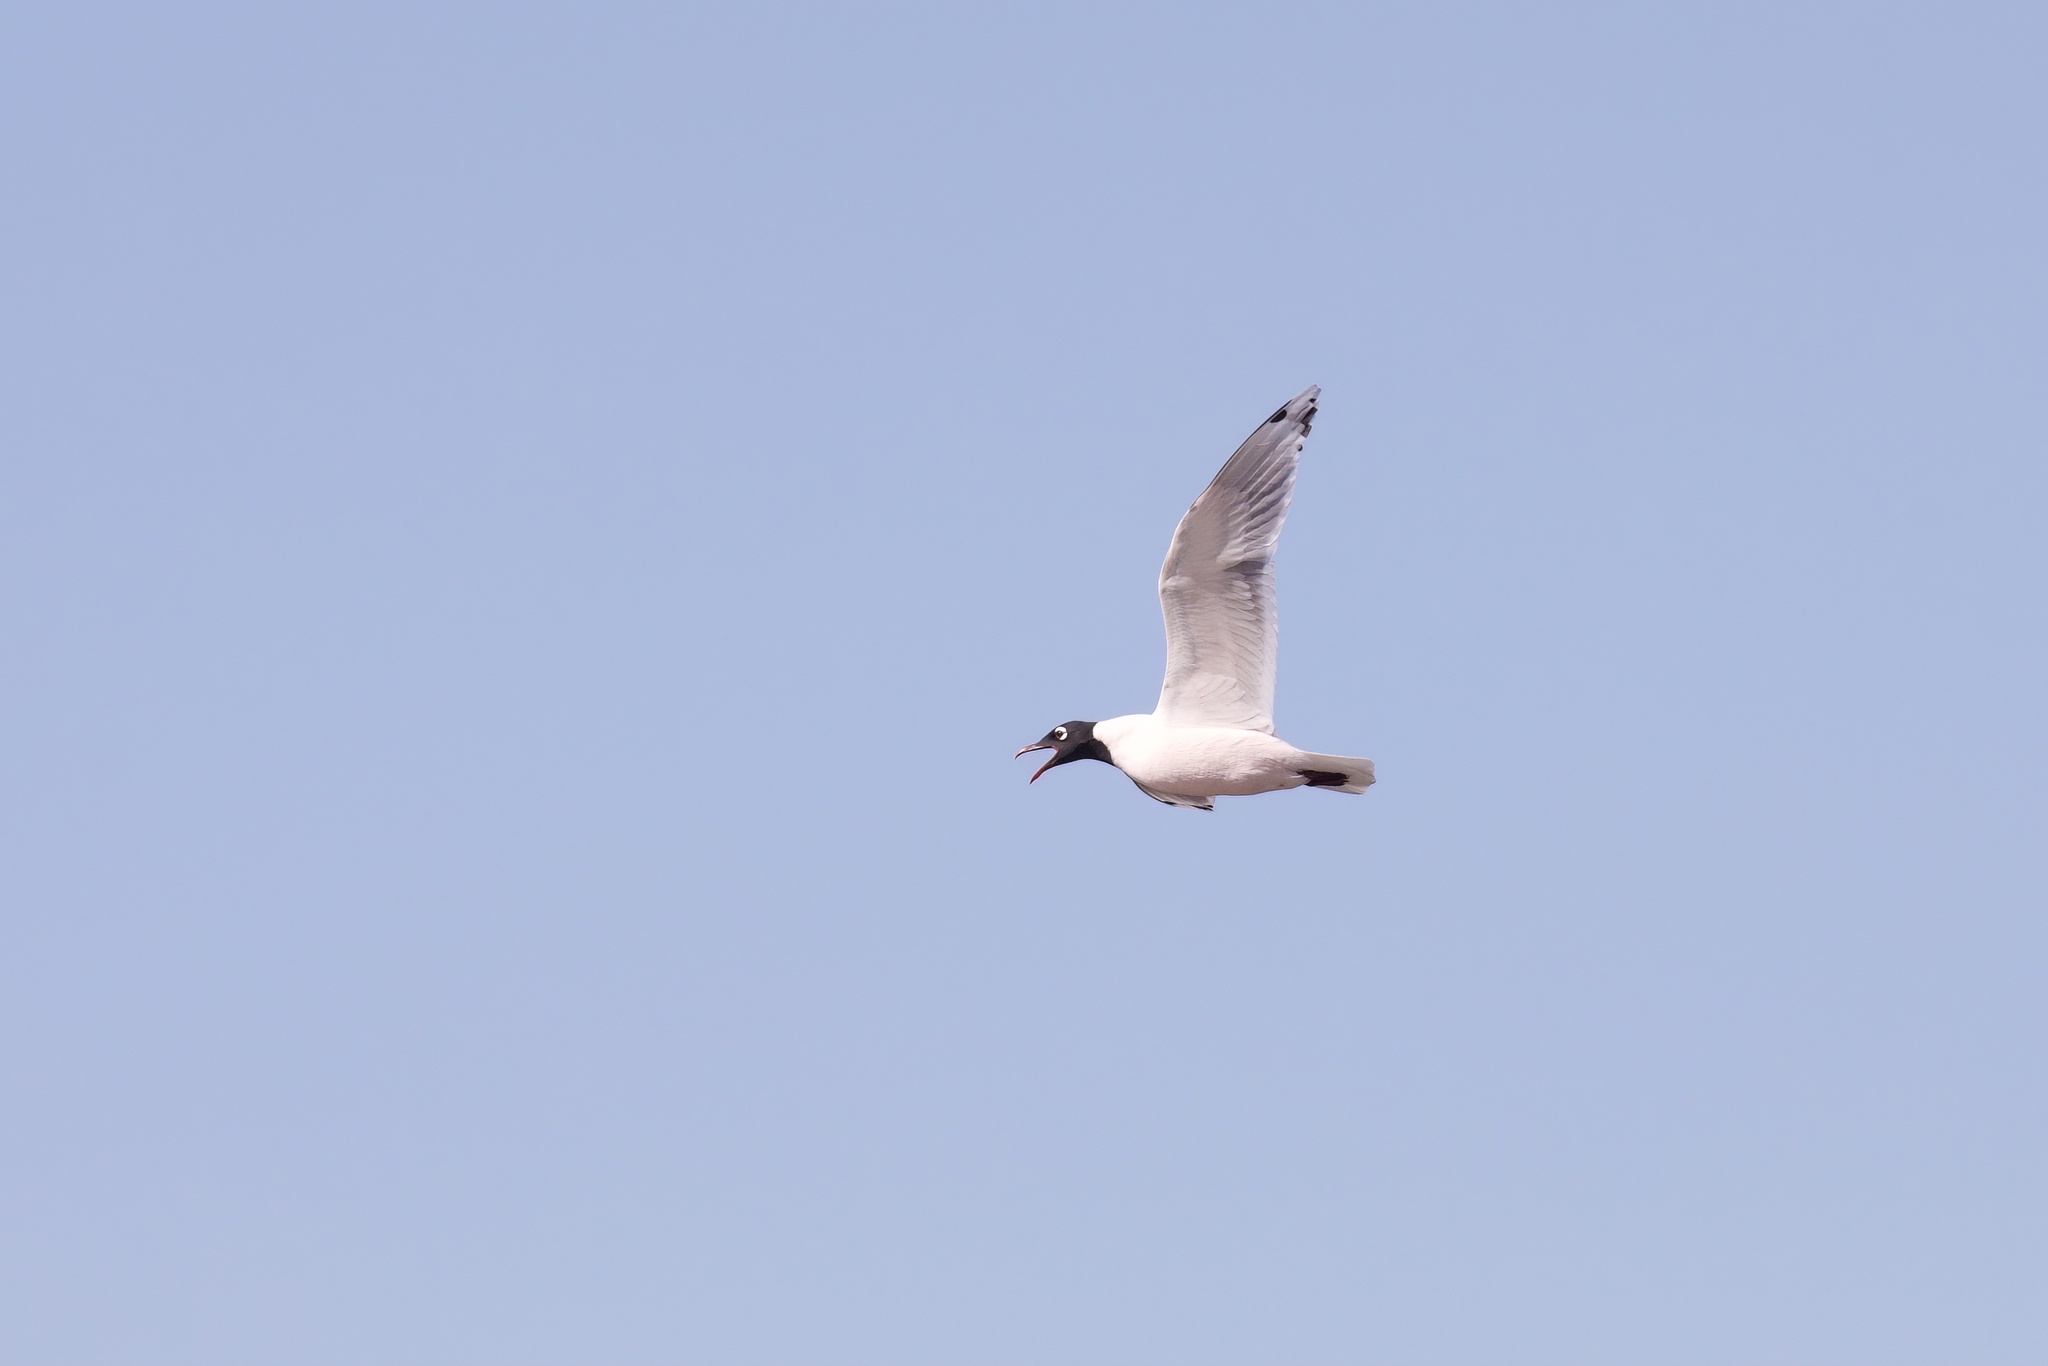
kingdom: Animalia
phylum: Chordata
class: Aves
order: Charadriiformes
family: Laridae
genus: Leucophaeus
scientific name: Leucophaeus pipixcan
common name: Franklin's gull
